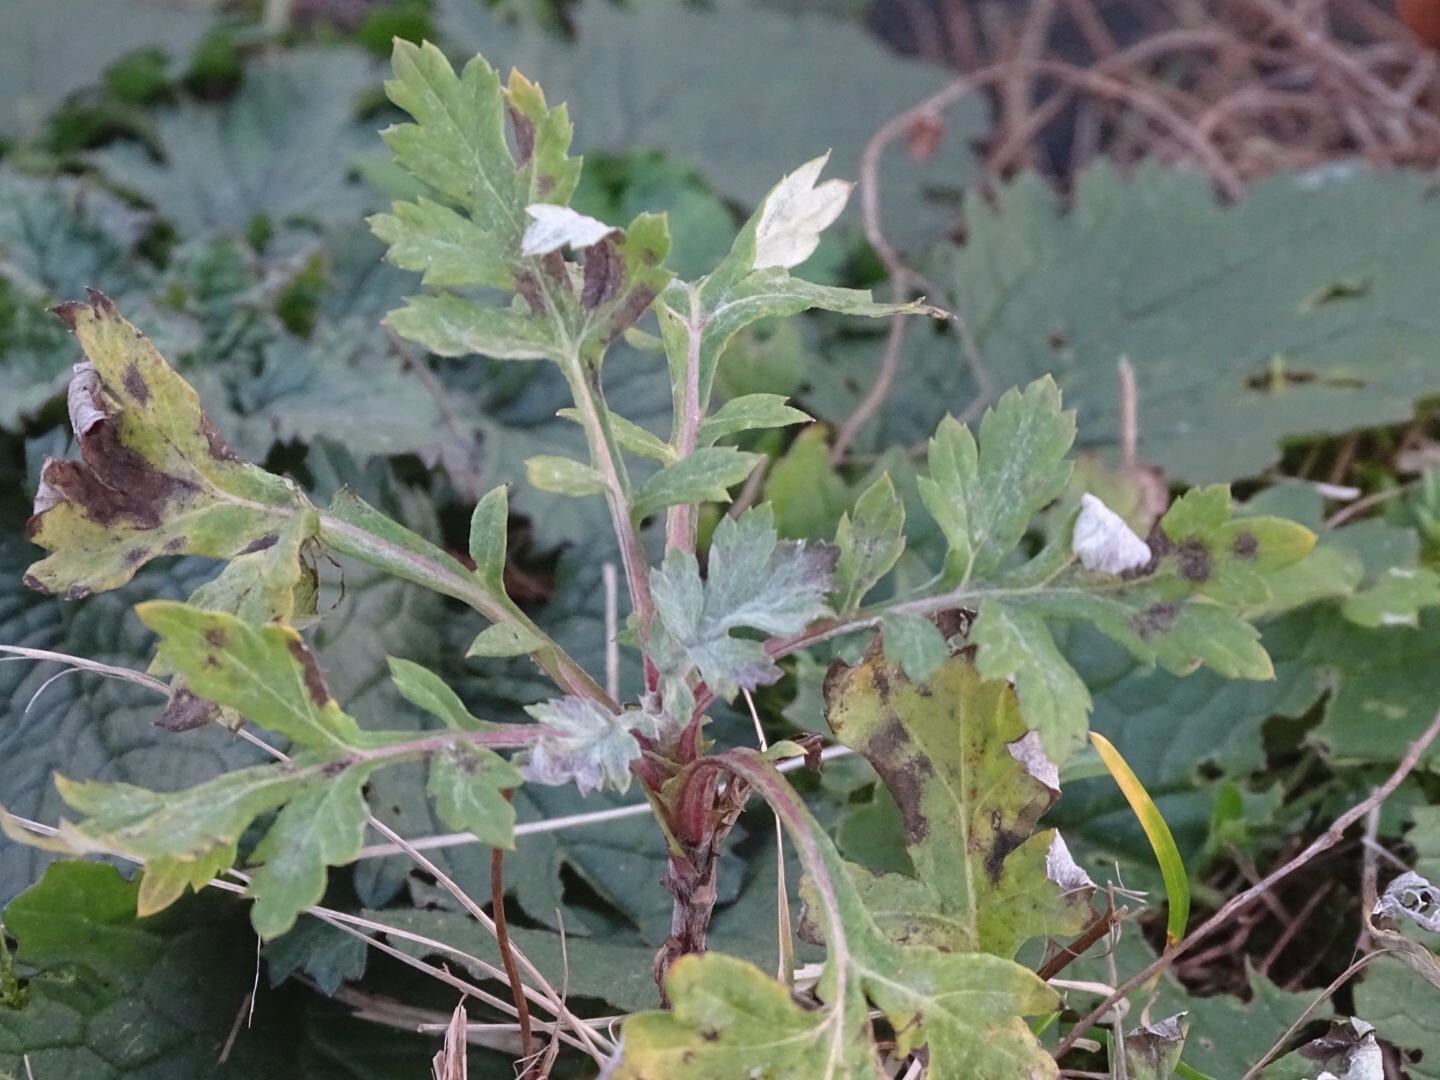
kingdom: Plantae
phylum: Tracheophyta
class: Magnoliopsida
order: Asterales
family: Asteraceae
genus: Artemisia
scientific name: Artemisia vulgaris
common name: Mugwort
